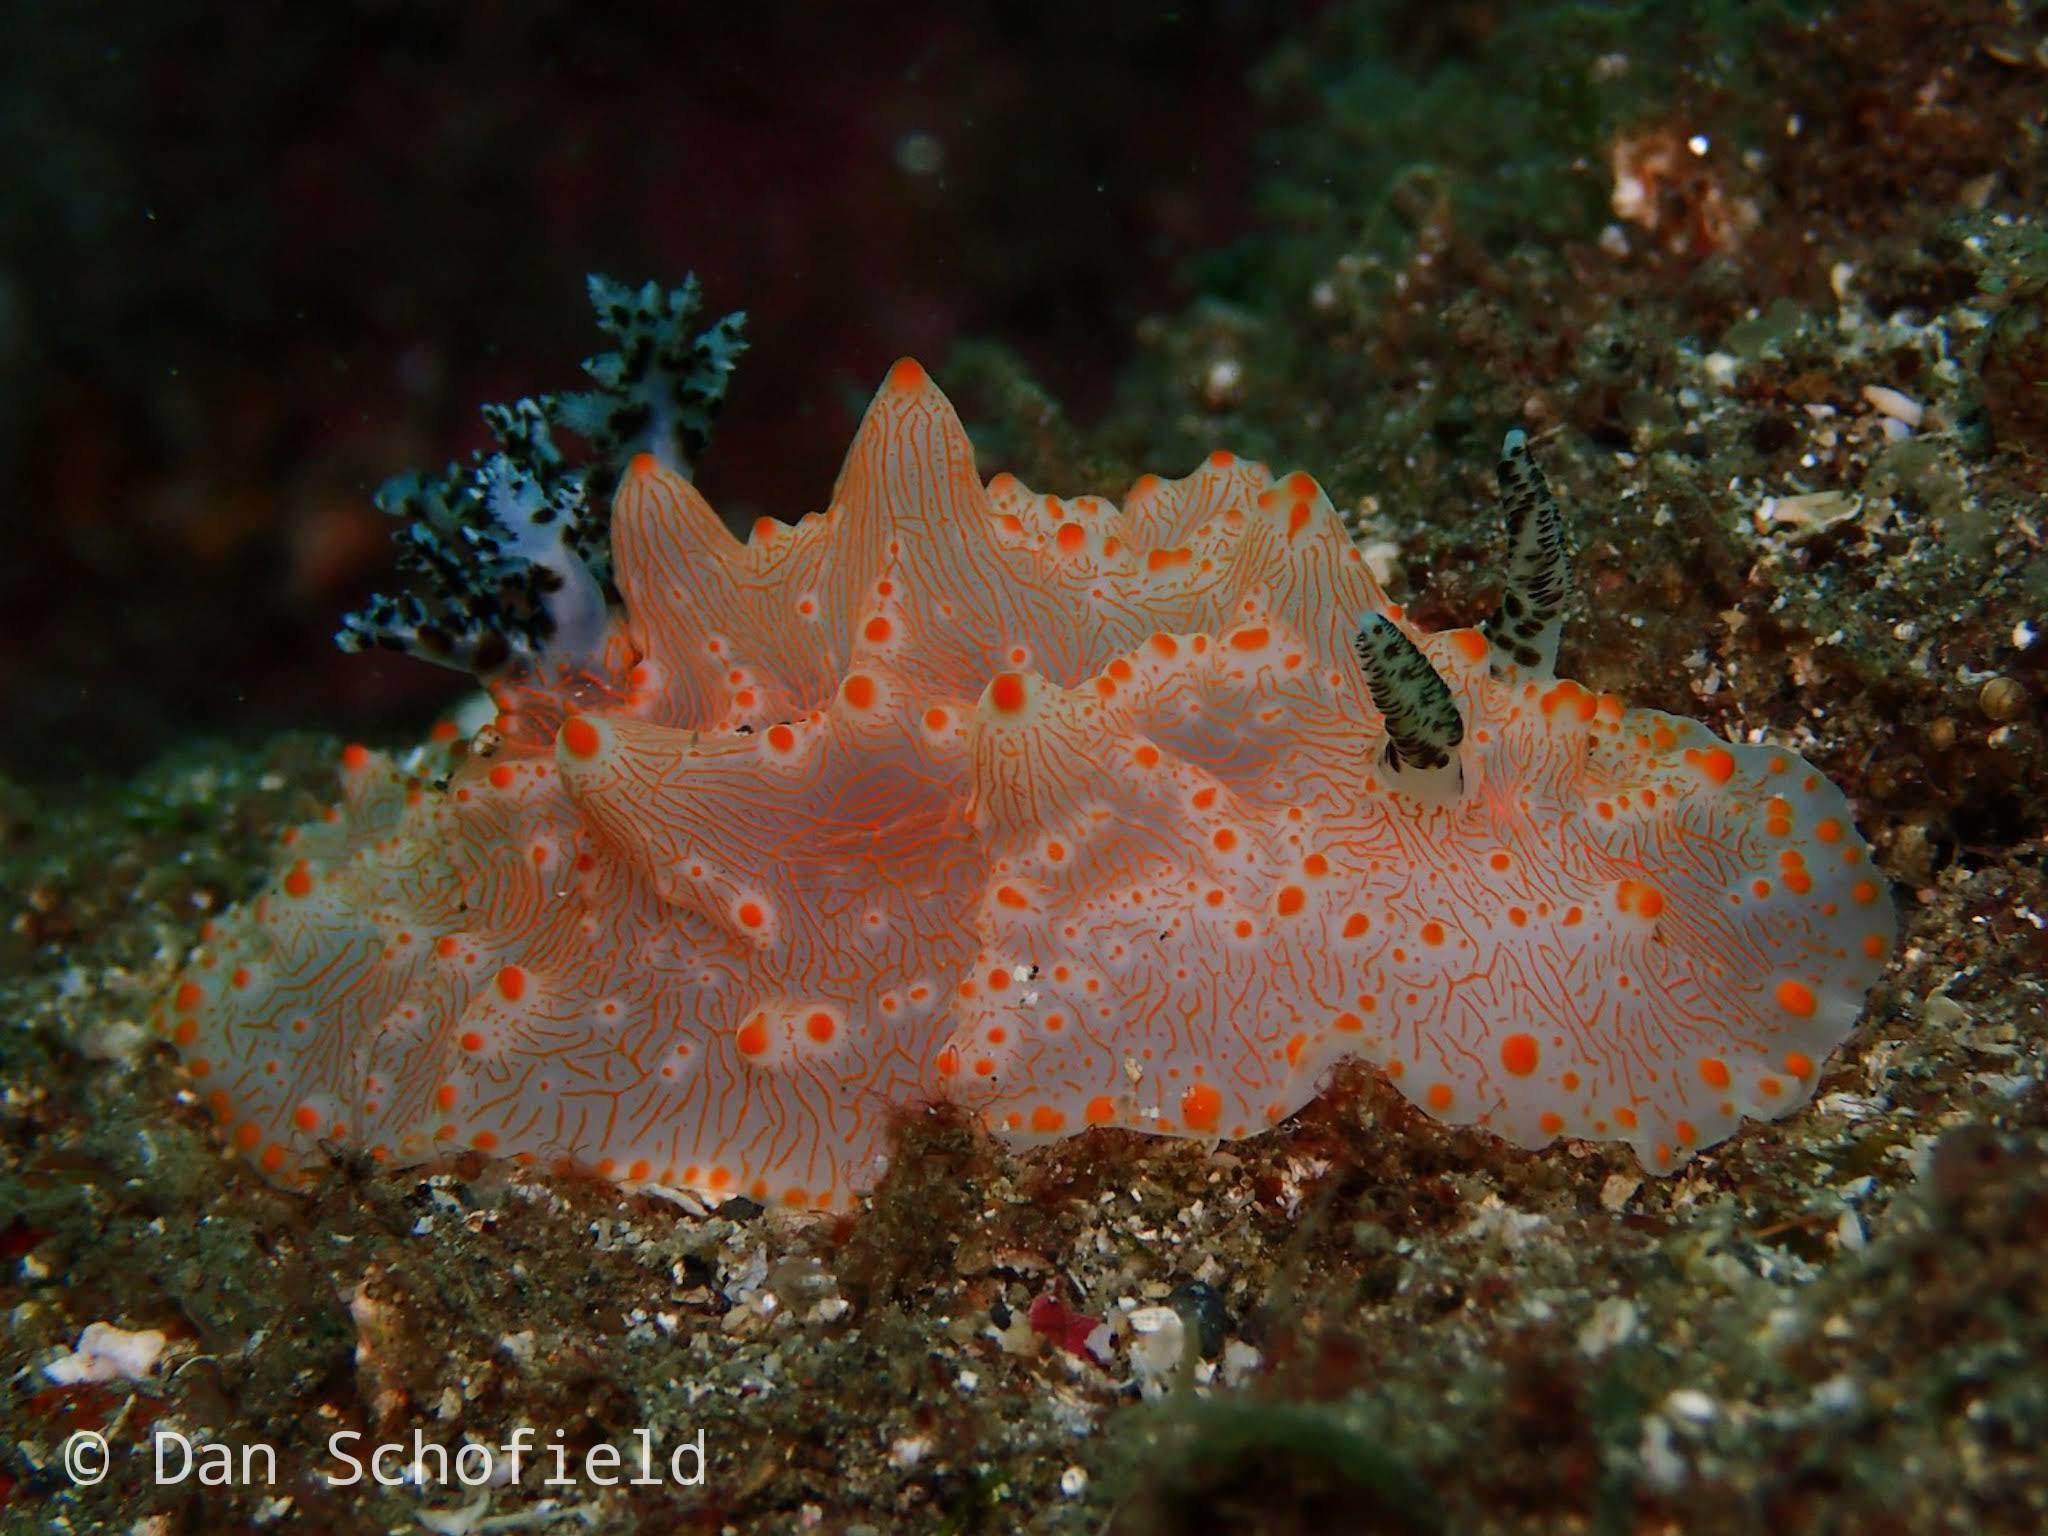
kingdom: Animalia
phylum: Mollusca
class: Gastropoda
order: Nudibranchia
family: Discodorididae
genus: Halgerda
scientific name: Halgerda batangas
